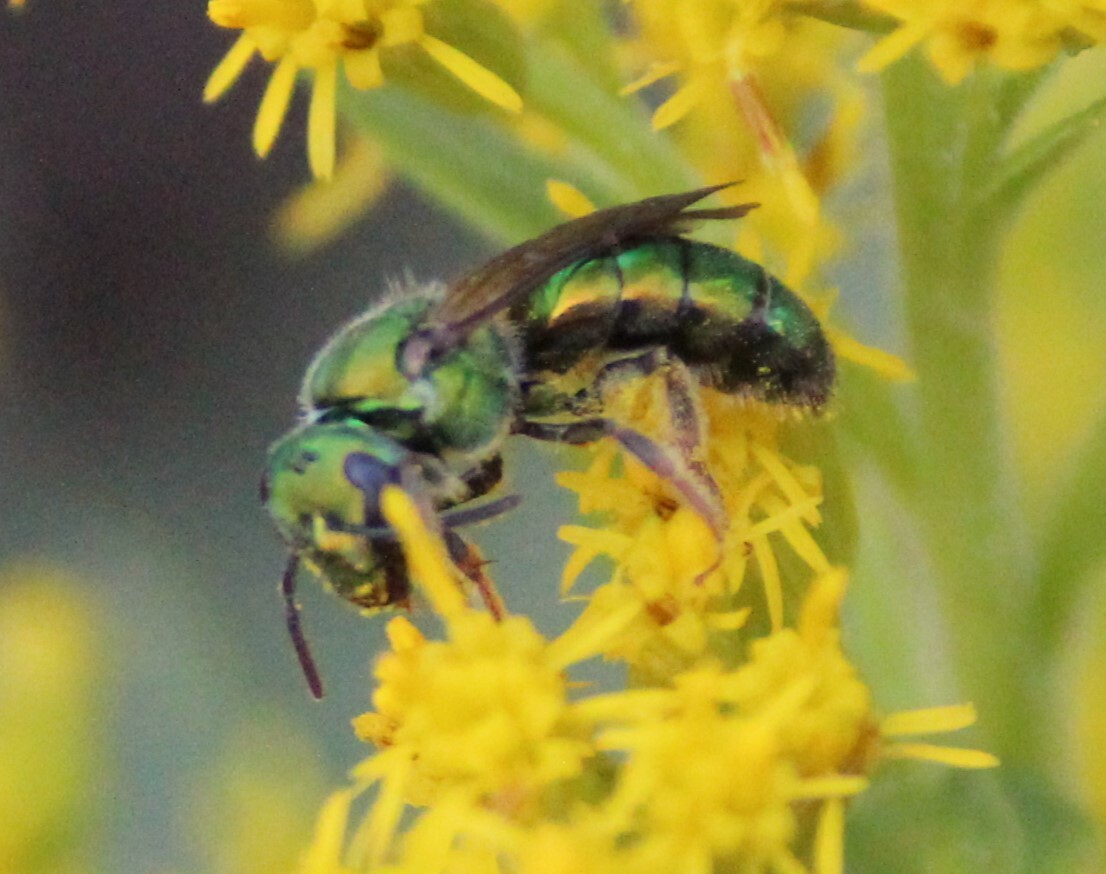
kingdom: Animalia
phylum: Arthropoda
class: Insecta
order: Hymenoptera
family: Halictidae
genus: Augochlora
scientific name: Augochlora pura
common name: Pure green sweat bee
